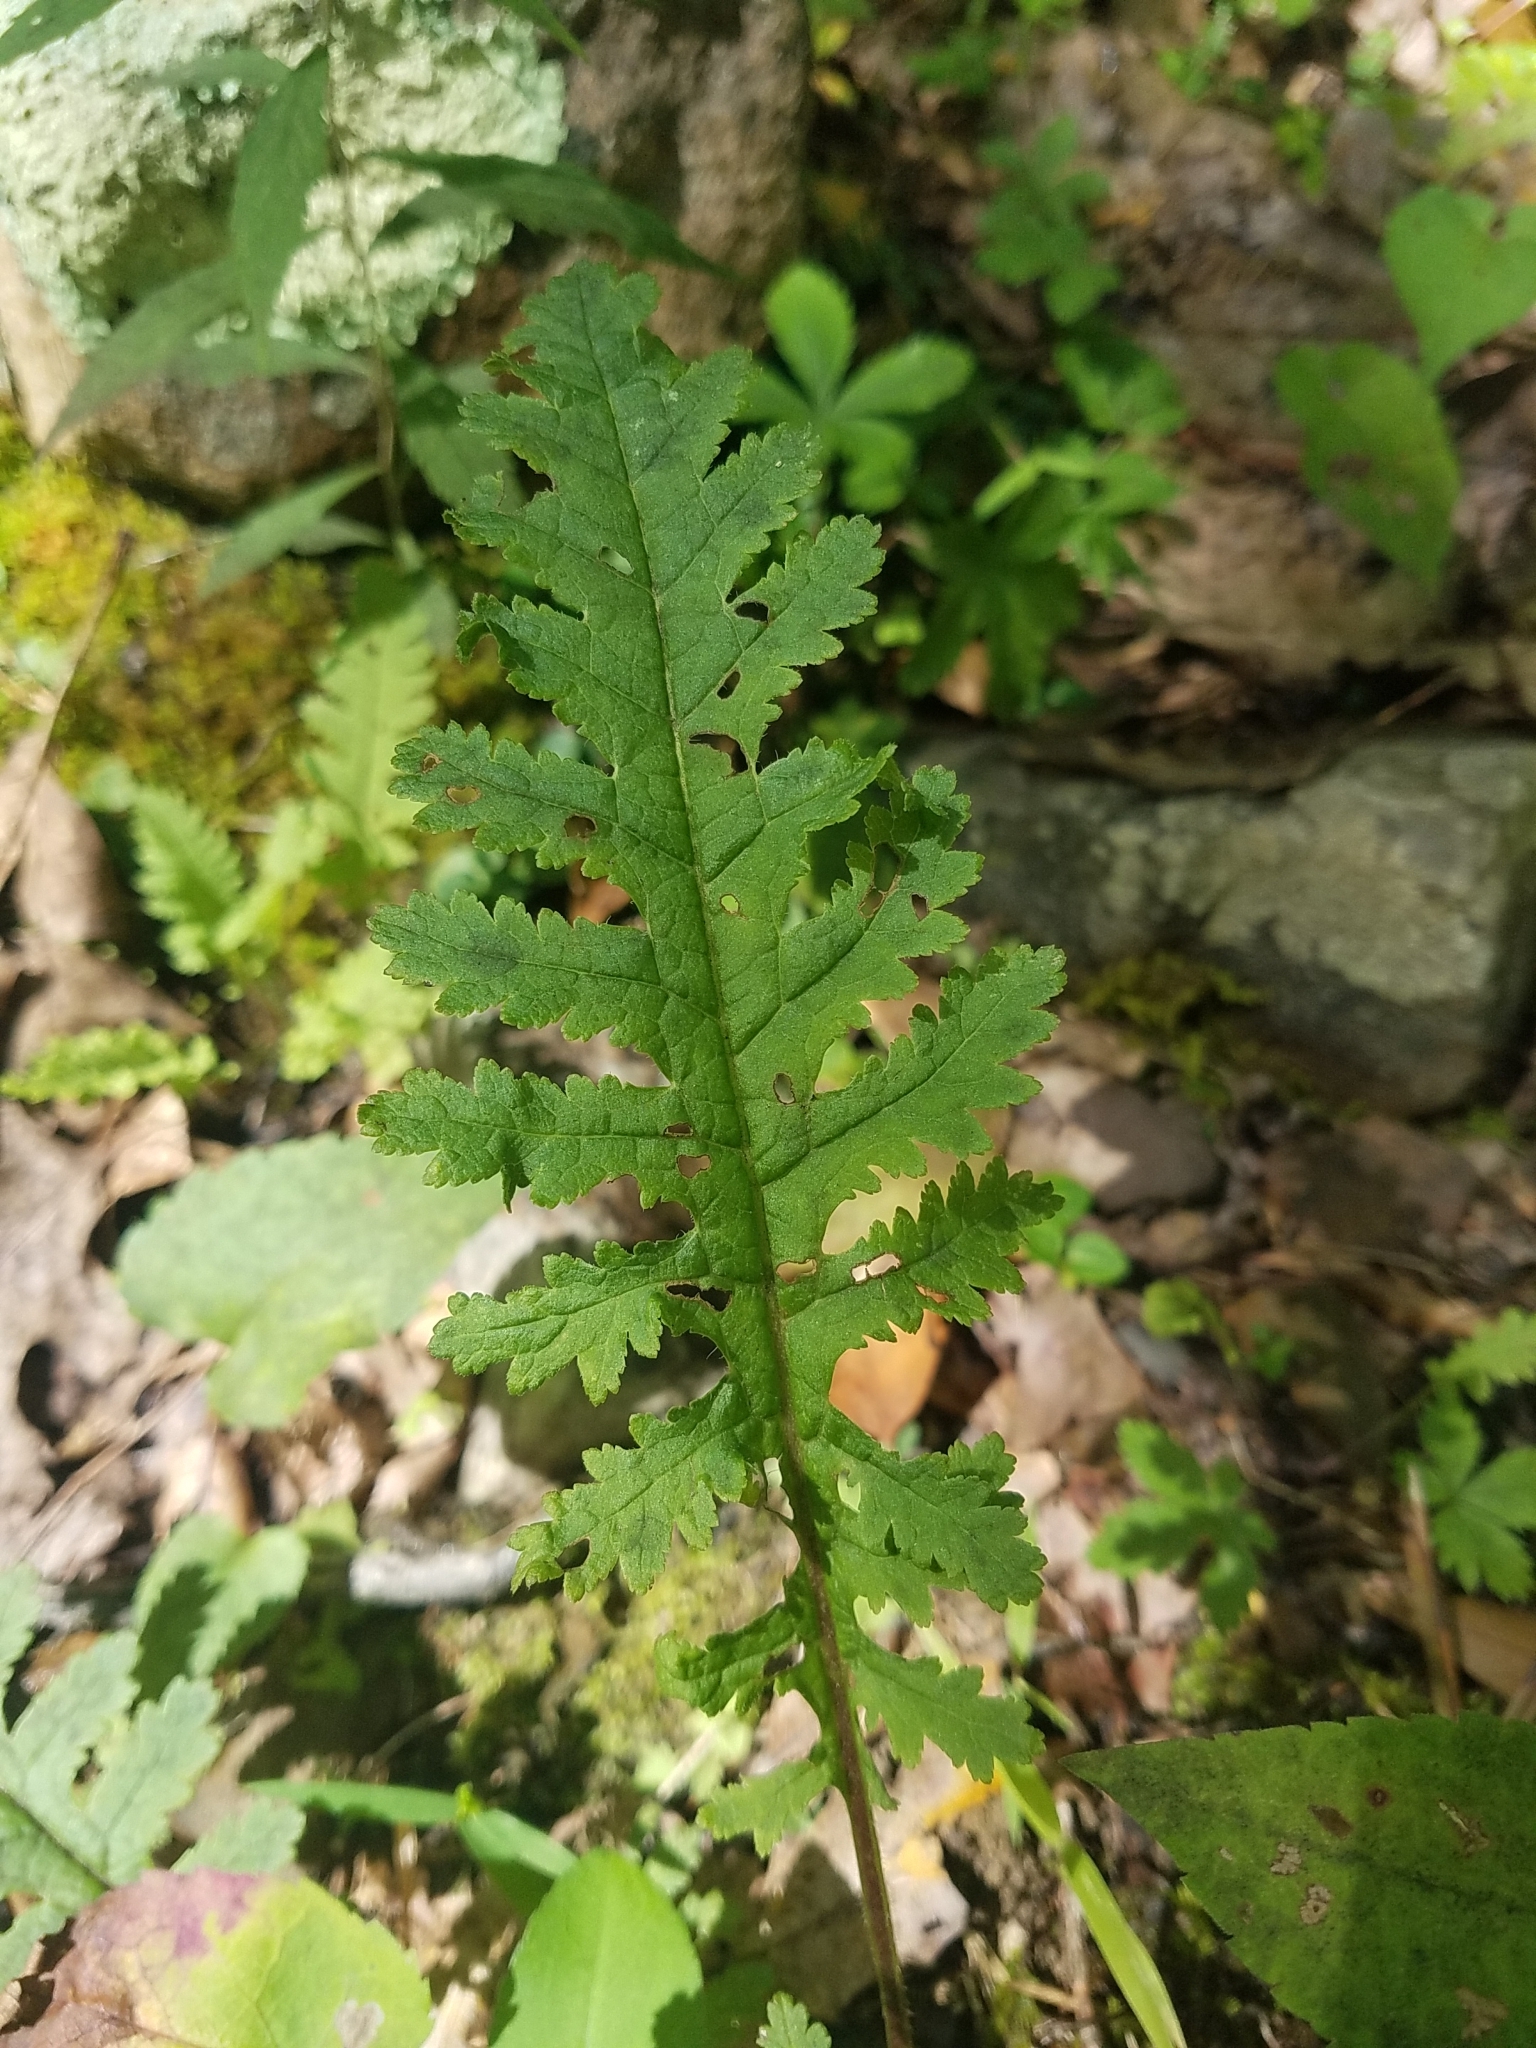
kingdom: Plantae
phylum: Tracheophyta
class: Magnoliopsida
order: Lamiales
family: Orobanchaceae
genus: Pedicularis
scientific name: Pedicularis canadensis
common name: Early lousewort
